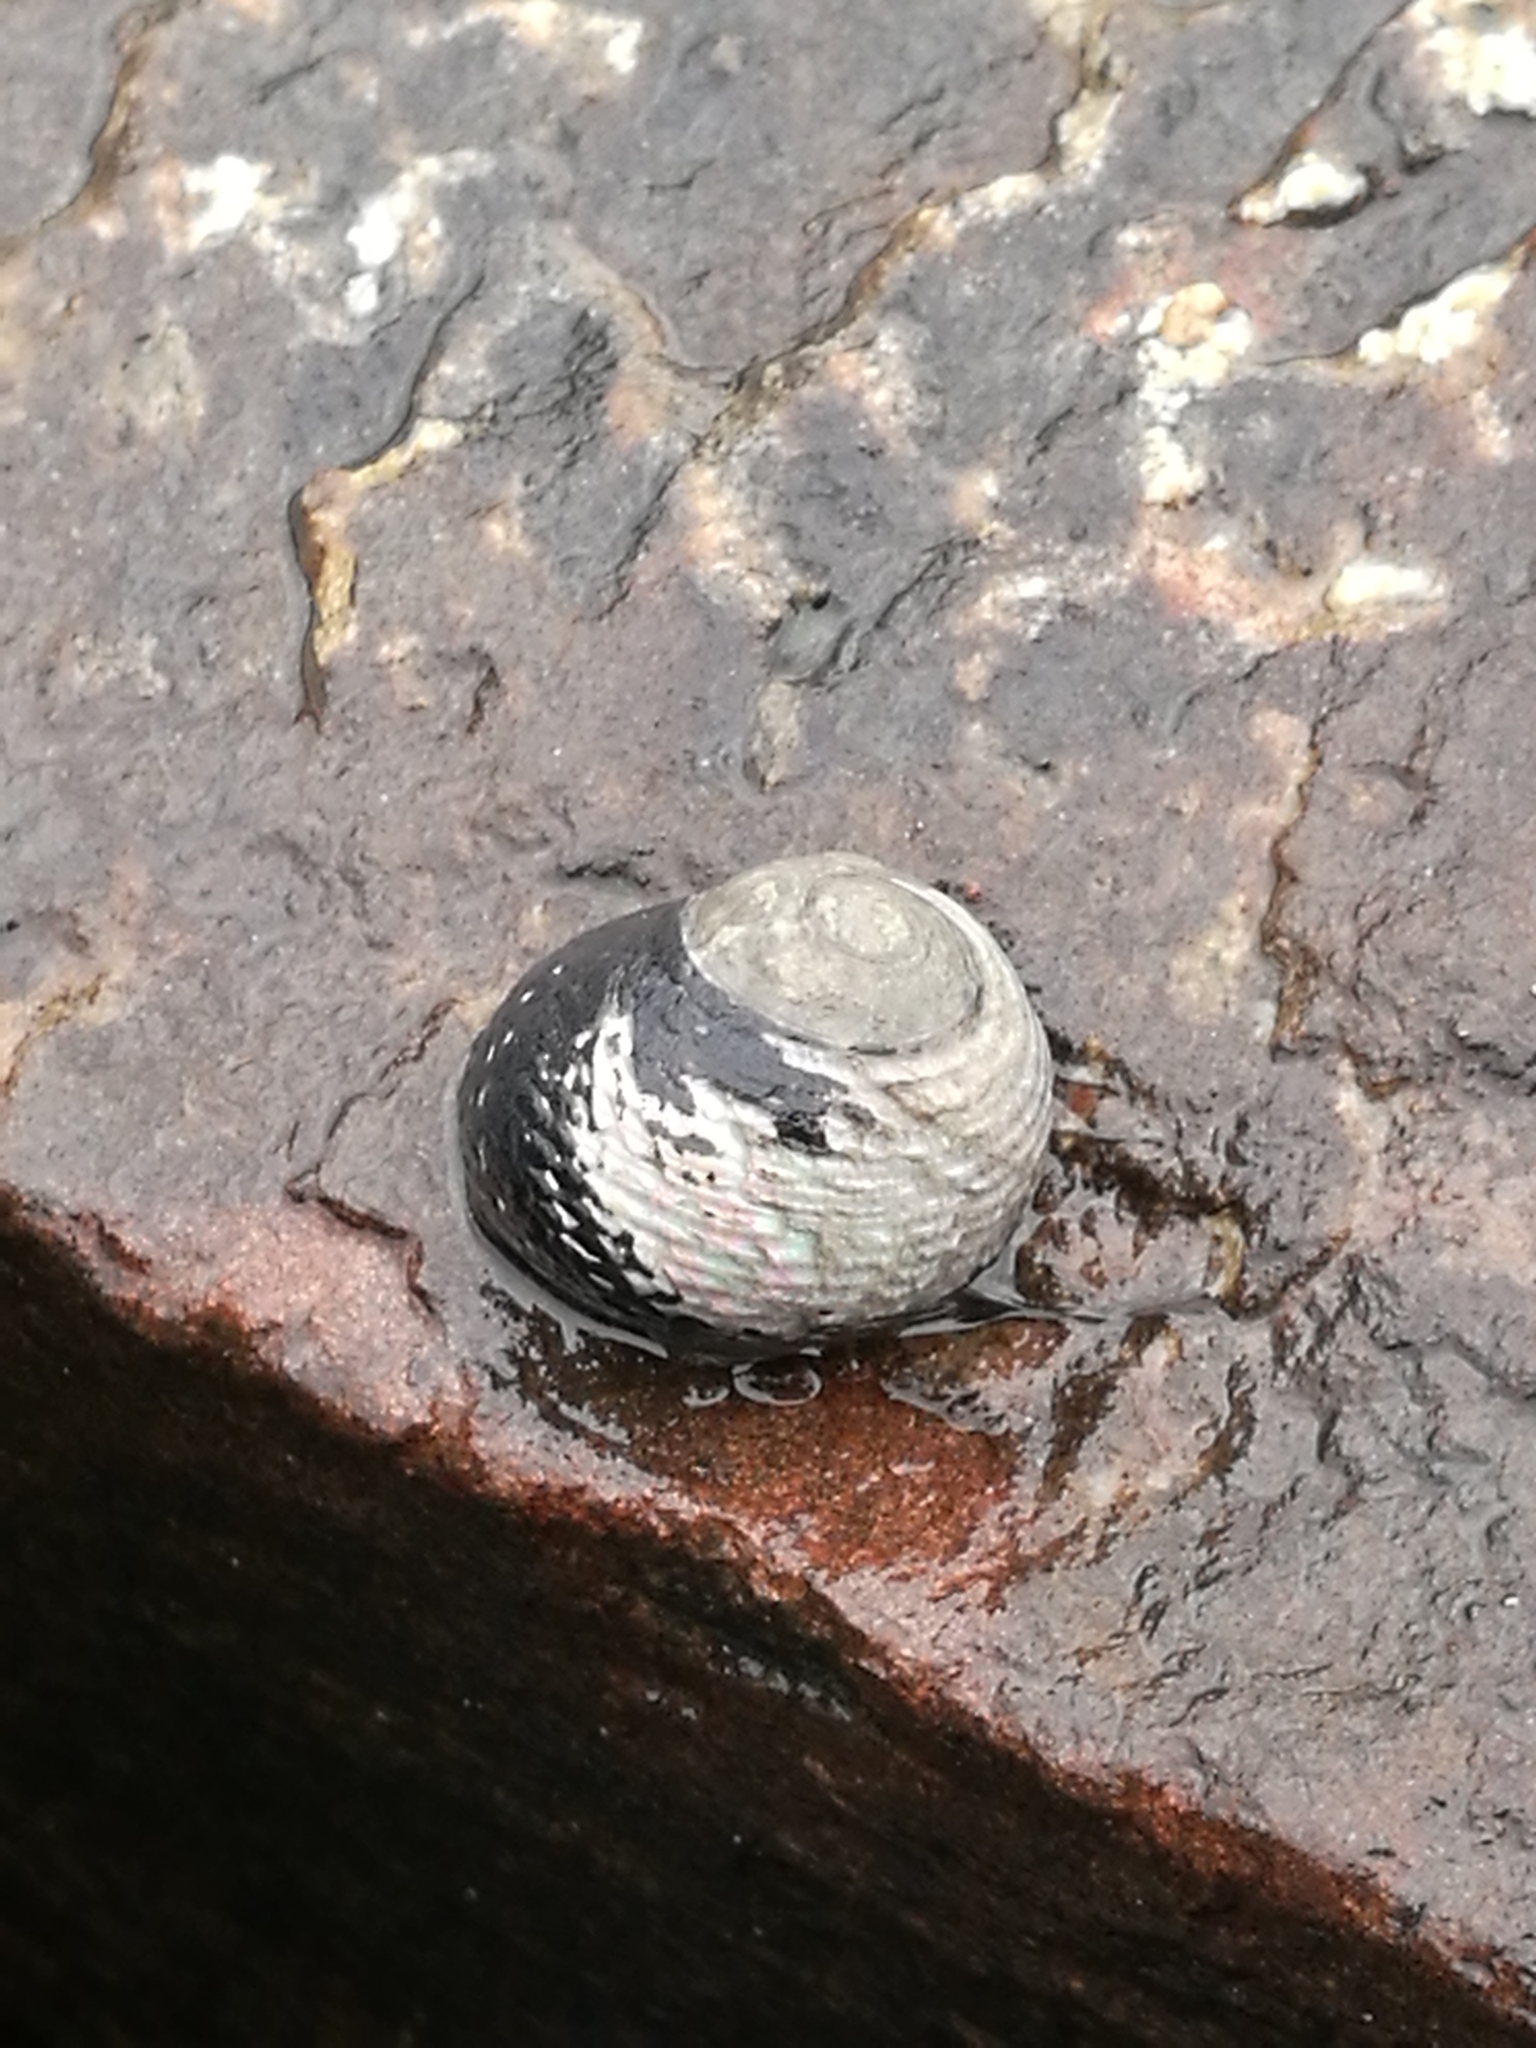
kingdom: Animalia
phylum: Mollusca
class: Gastropoda
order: Trochida
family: Trochidae
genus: Diloma
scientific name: Diloma zelandicum
